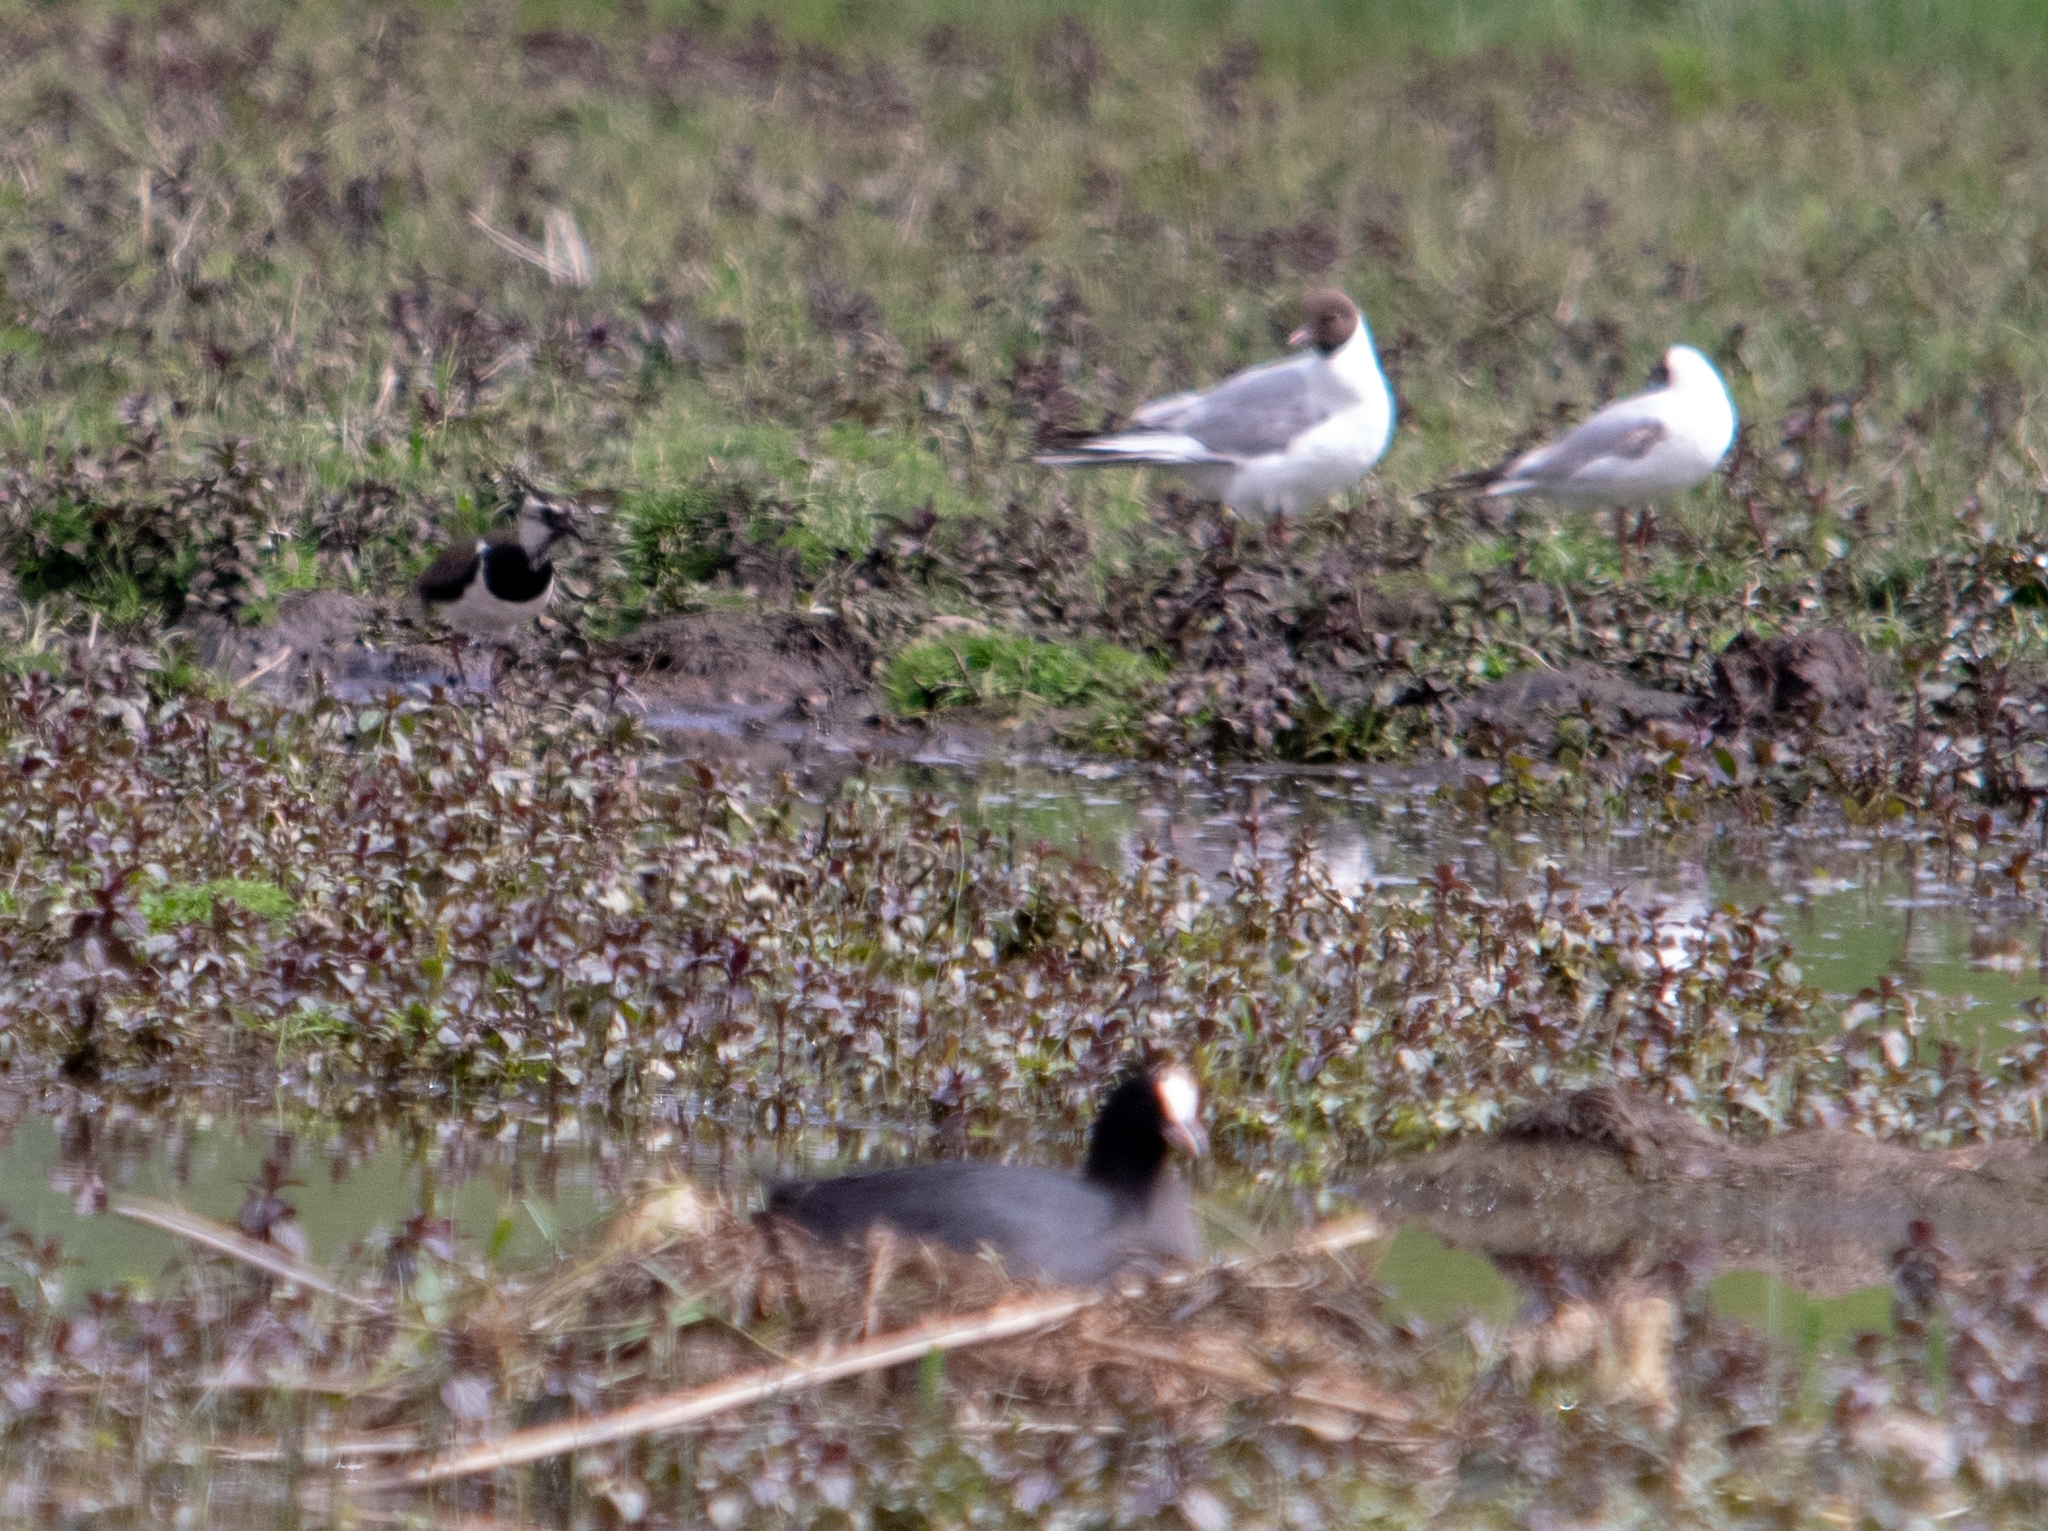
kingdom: Animalia
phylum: Chordata
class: Aves
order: Gruiformes
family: Rallidae
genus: Fulica
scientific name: Fulica atra
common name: Eurasian coot
